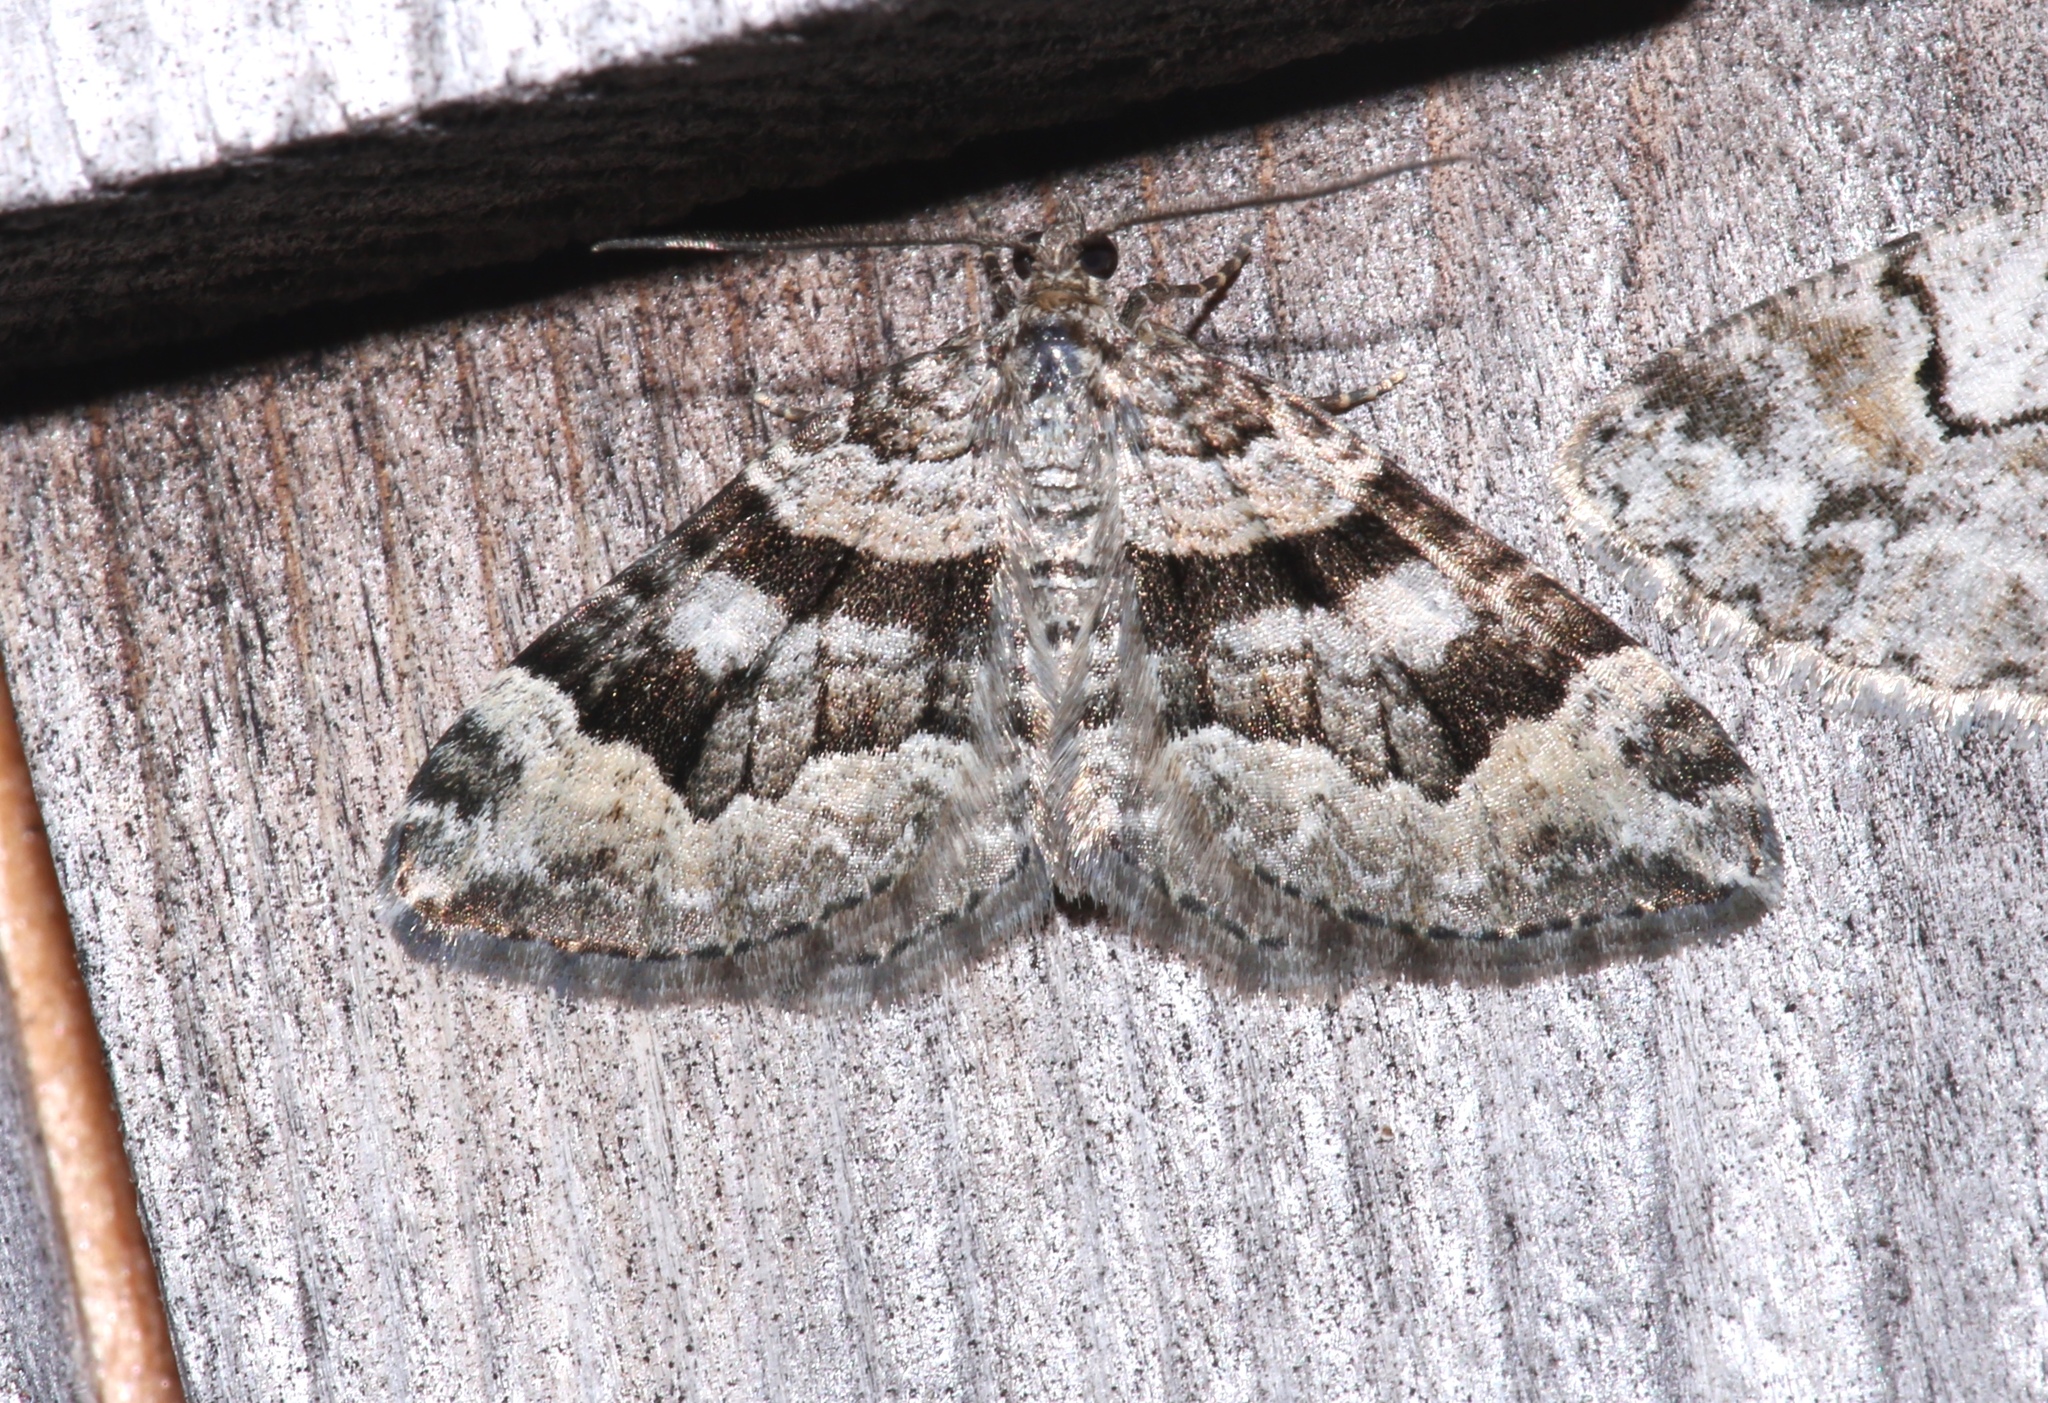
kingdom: Animalia
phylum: Arthropoda
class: Insecta
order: Lepidoptera
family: Geometridae
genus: Xanthorhoe
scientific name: Xanthorhoe abrasaria
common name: Northern carpet
